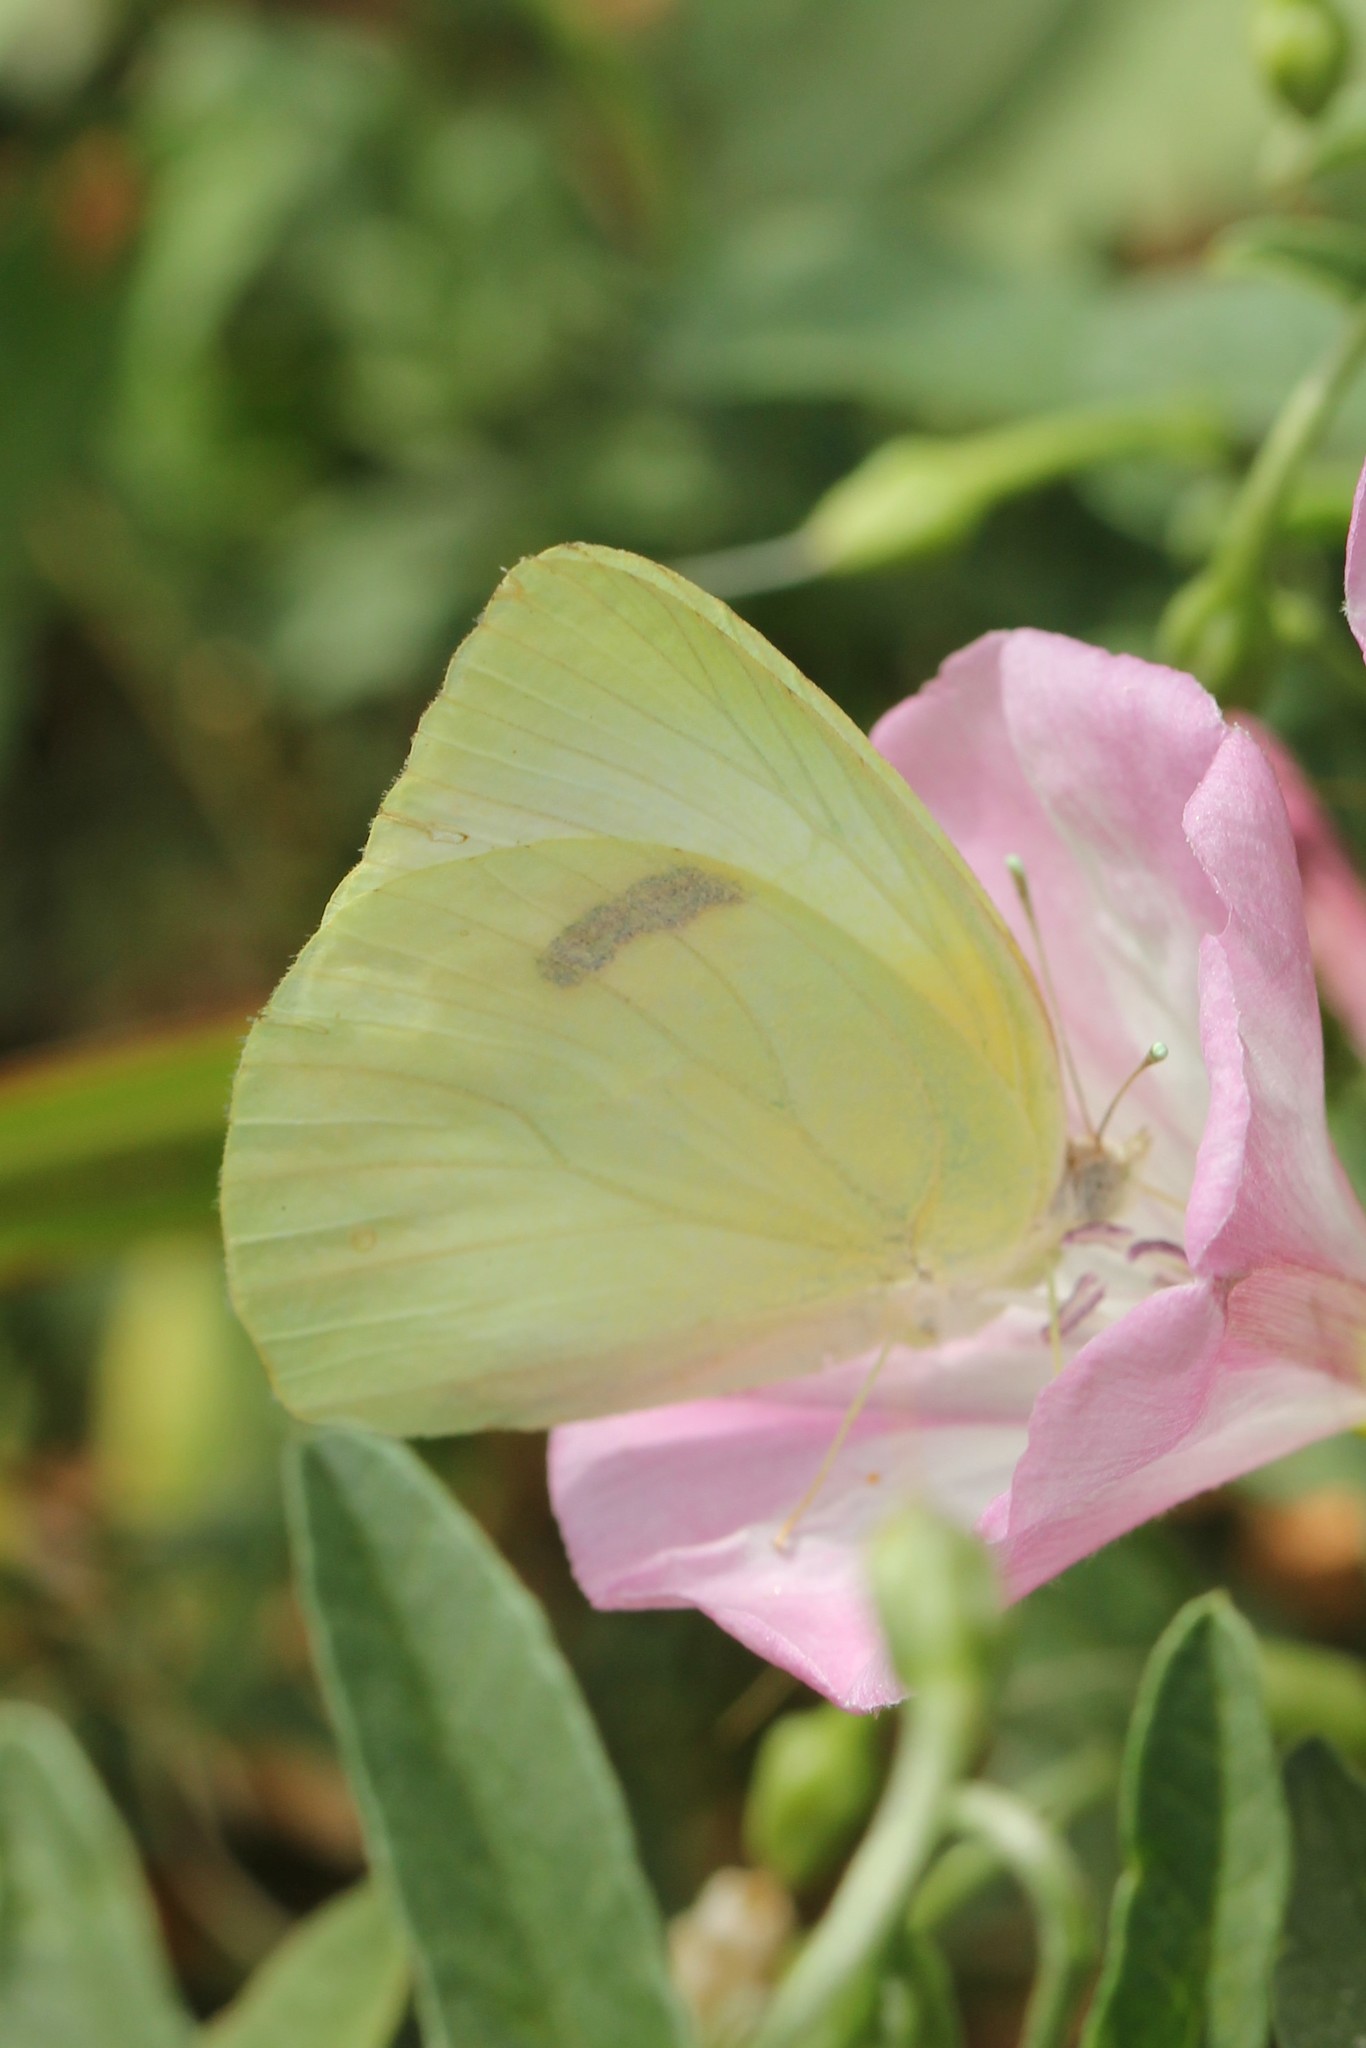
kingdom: Animalia
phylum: Arthropoda
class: Insecta
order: Lepidoptera
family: Pieridae
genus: Kricogonia
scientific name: Kricogonia lyside
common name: Guayacan sulphur,
